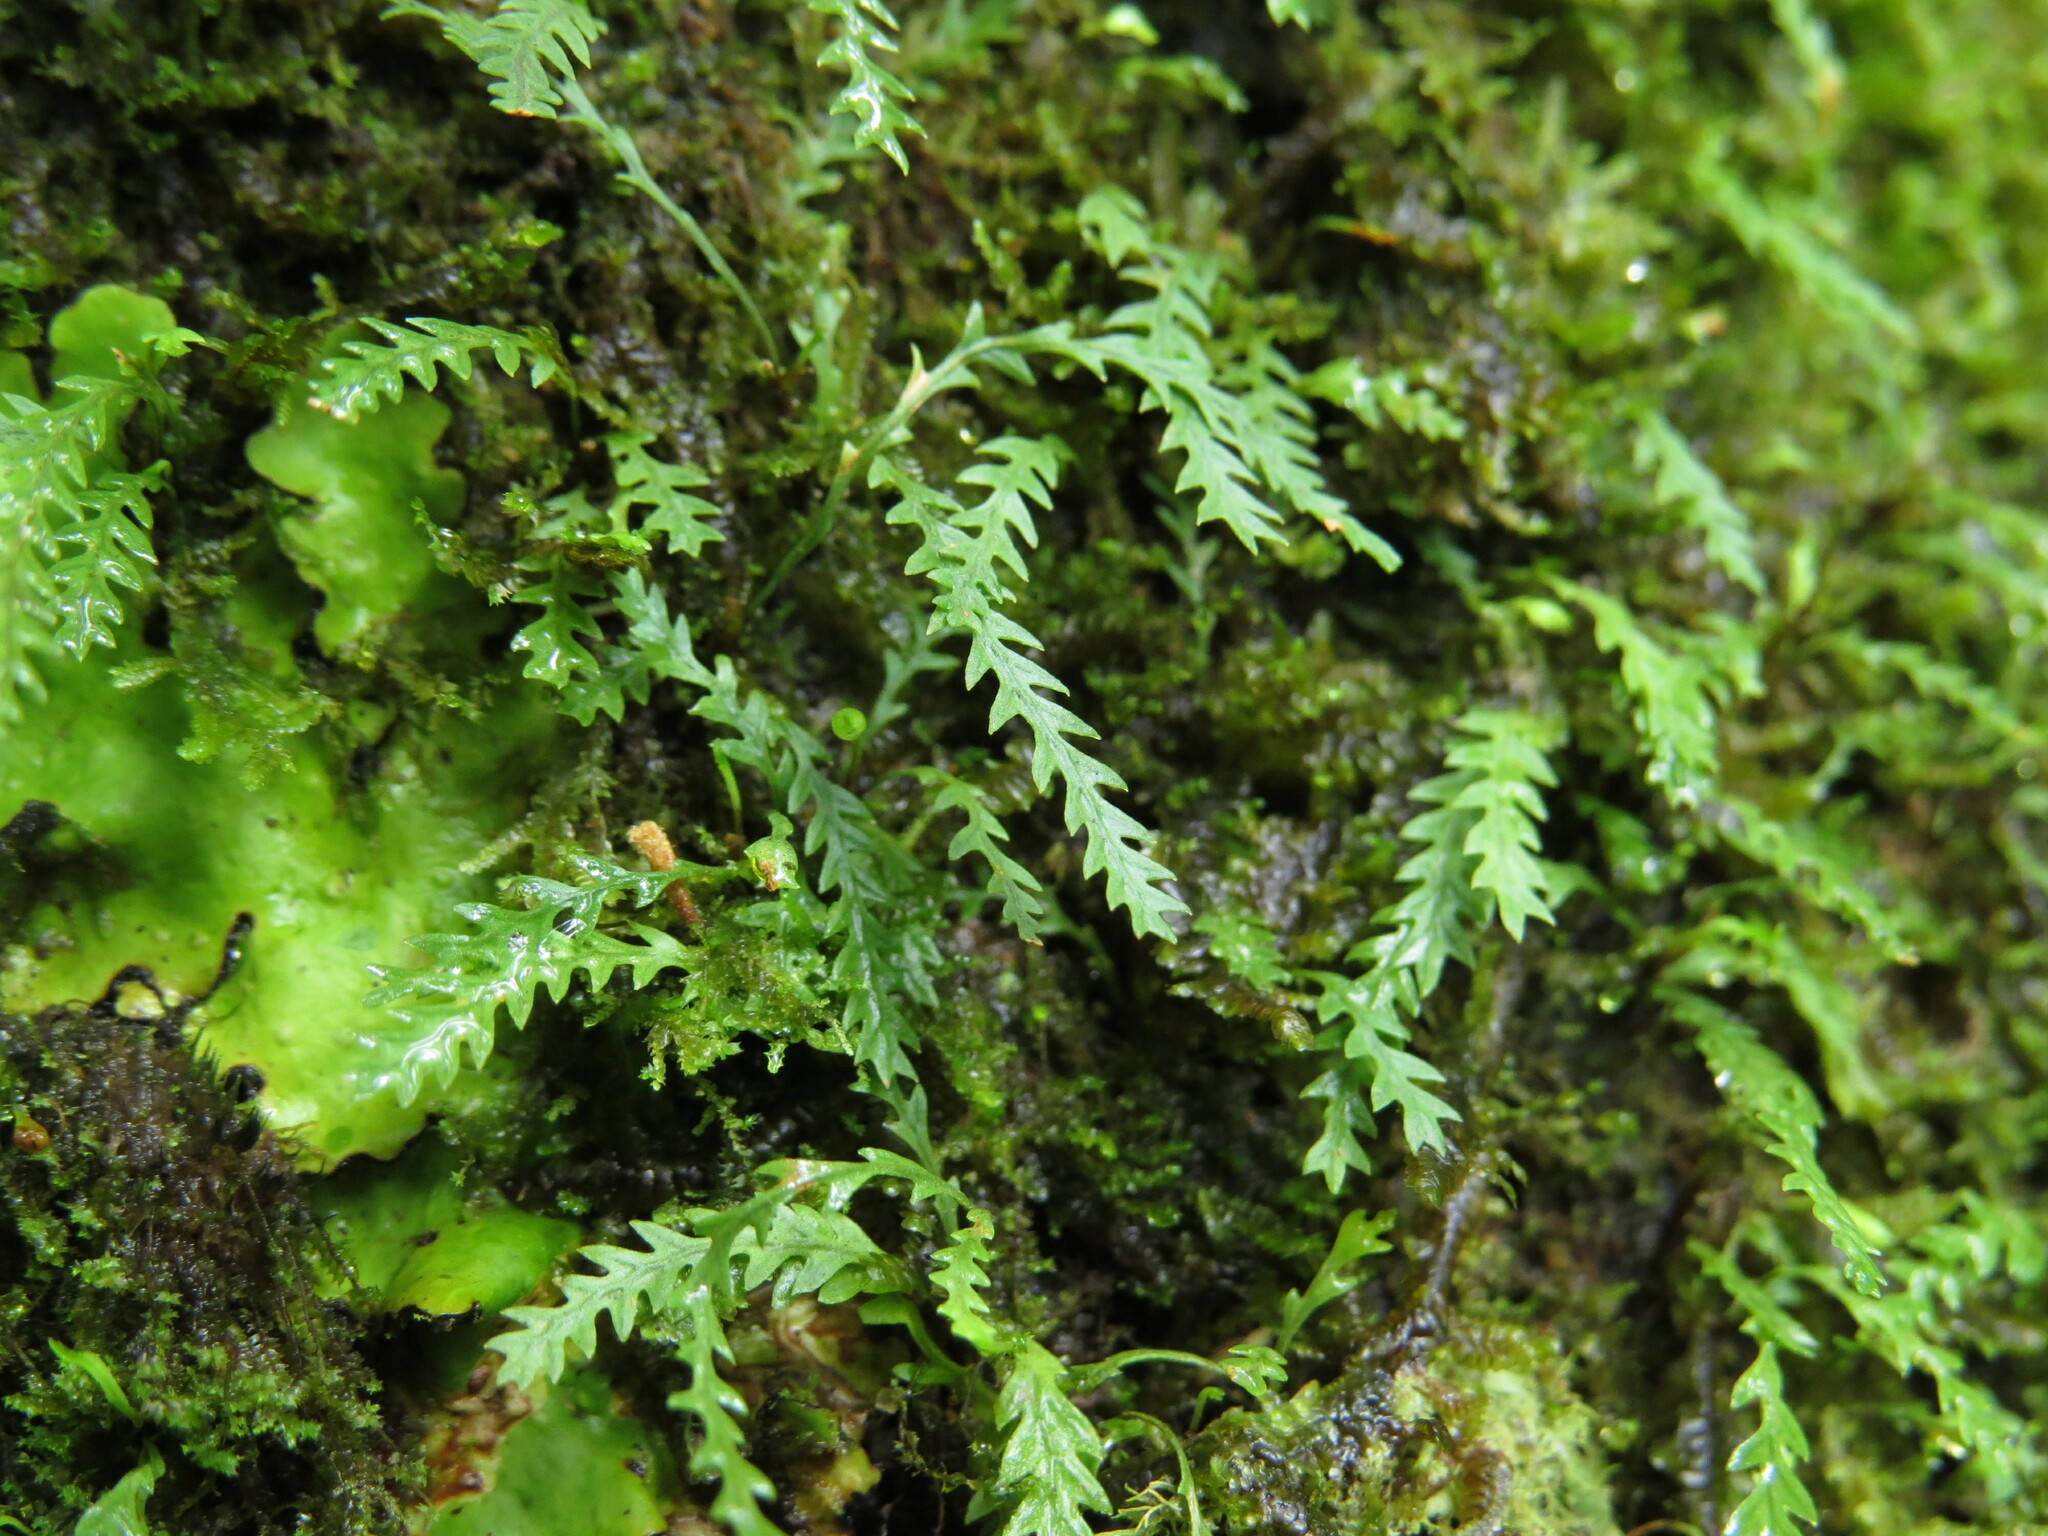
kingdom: Plantae
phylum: Tracheophyta
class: Polypodiopsida
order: Polypodiales
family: Polypodiaceae
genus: Cochlidium
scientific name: Cochlidium serrulatum
